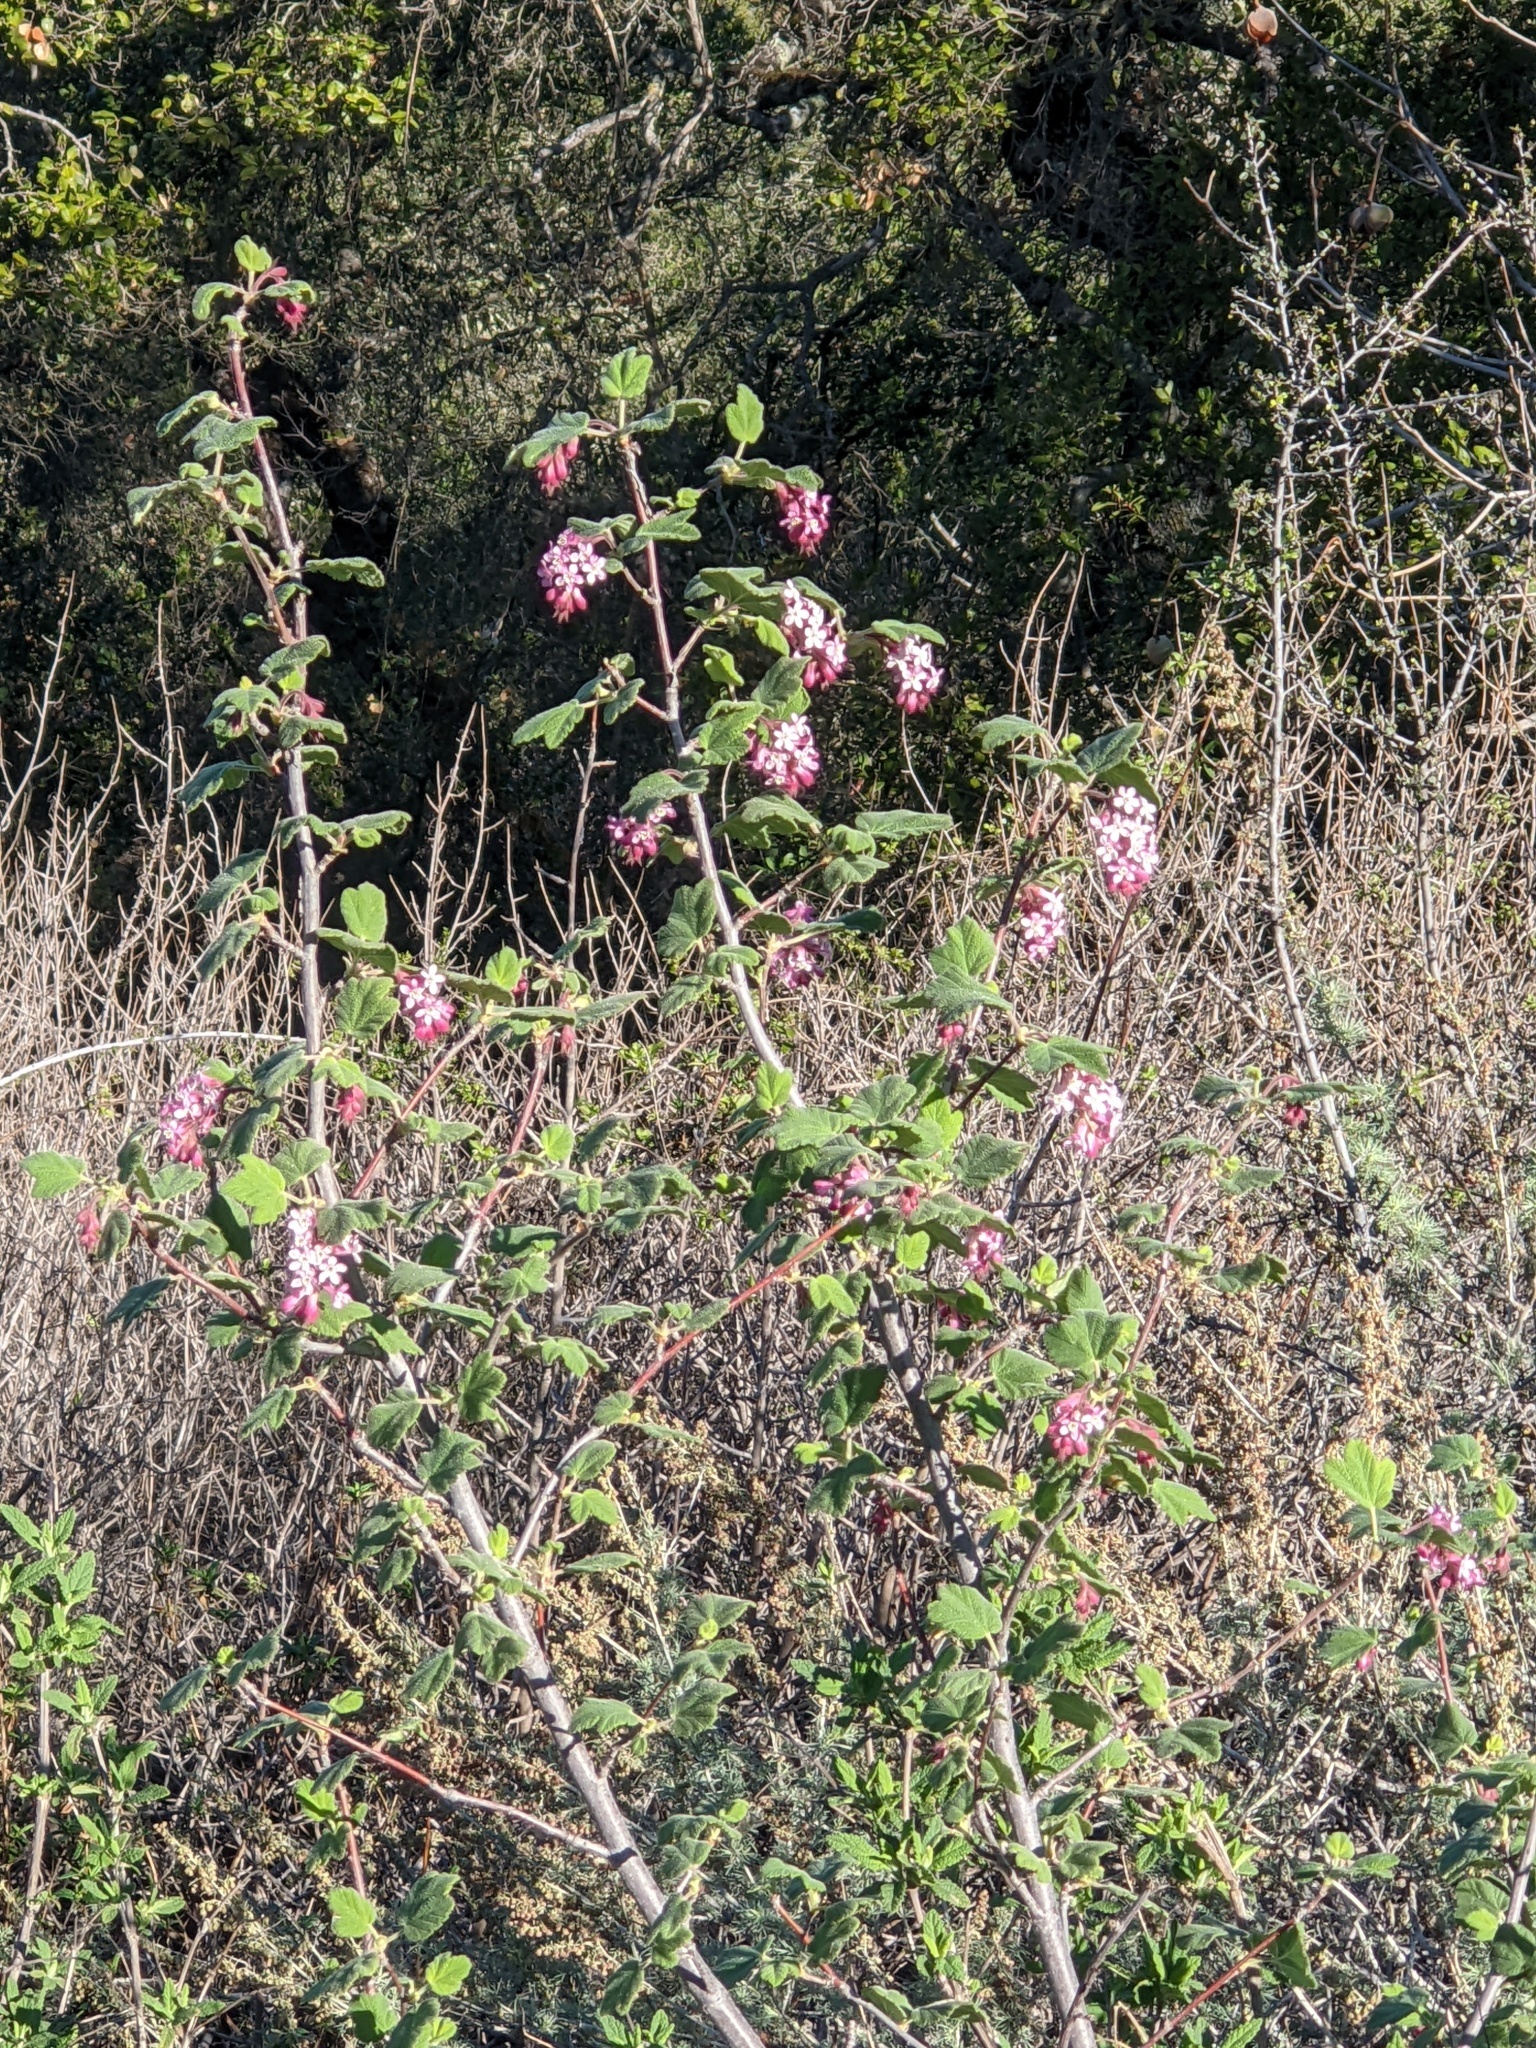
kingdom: Plantae
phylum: Tracheophyta
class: Magnoliopsida
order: Saxifragales
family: Grossulariaceae
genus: Ribes
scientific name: Ribes malvaceum
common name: Chaparral currant
